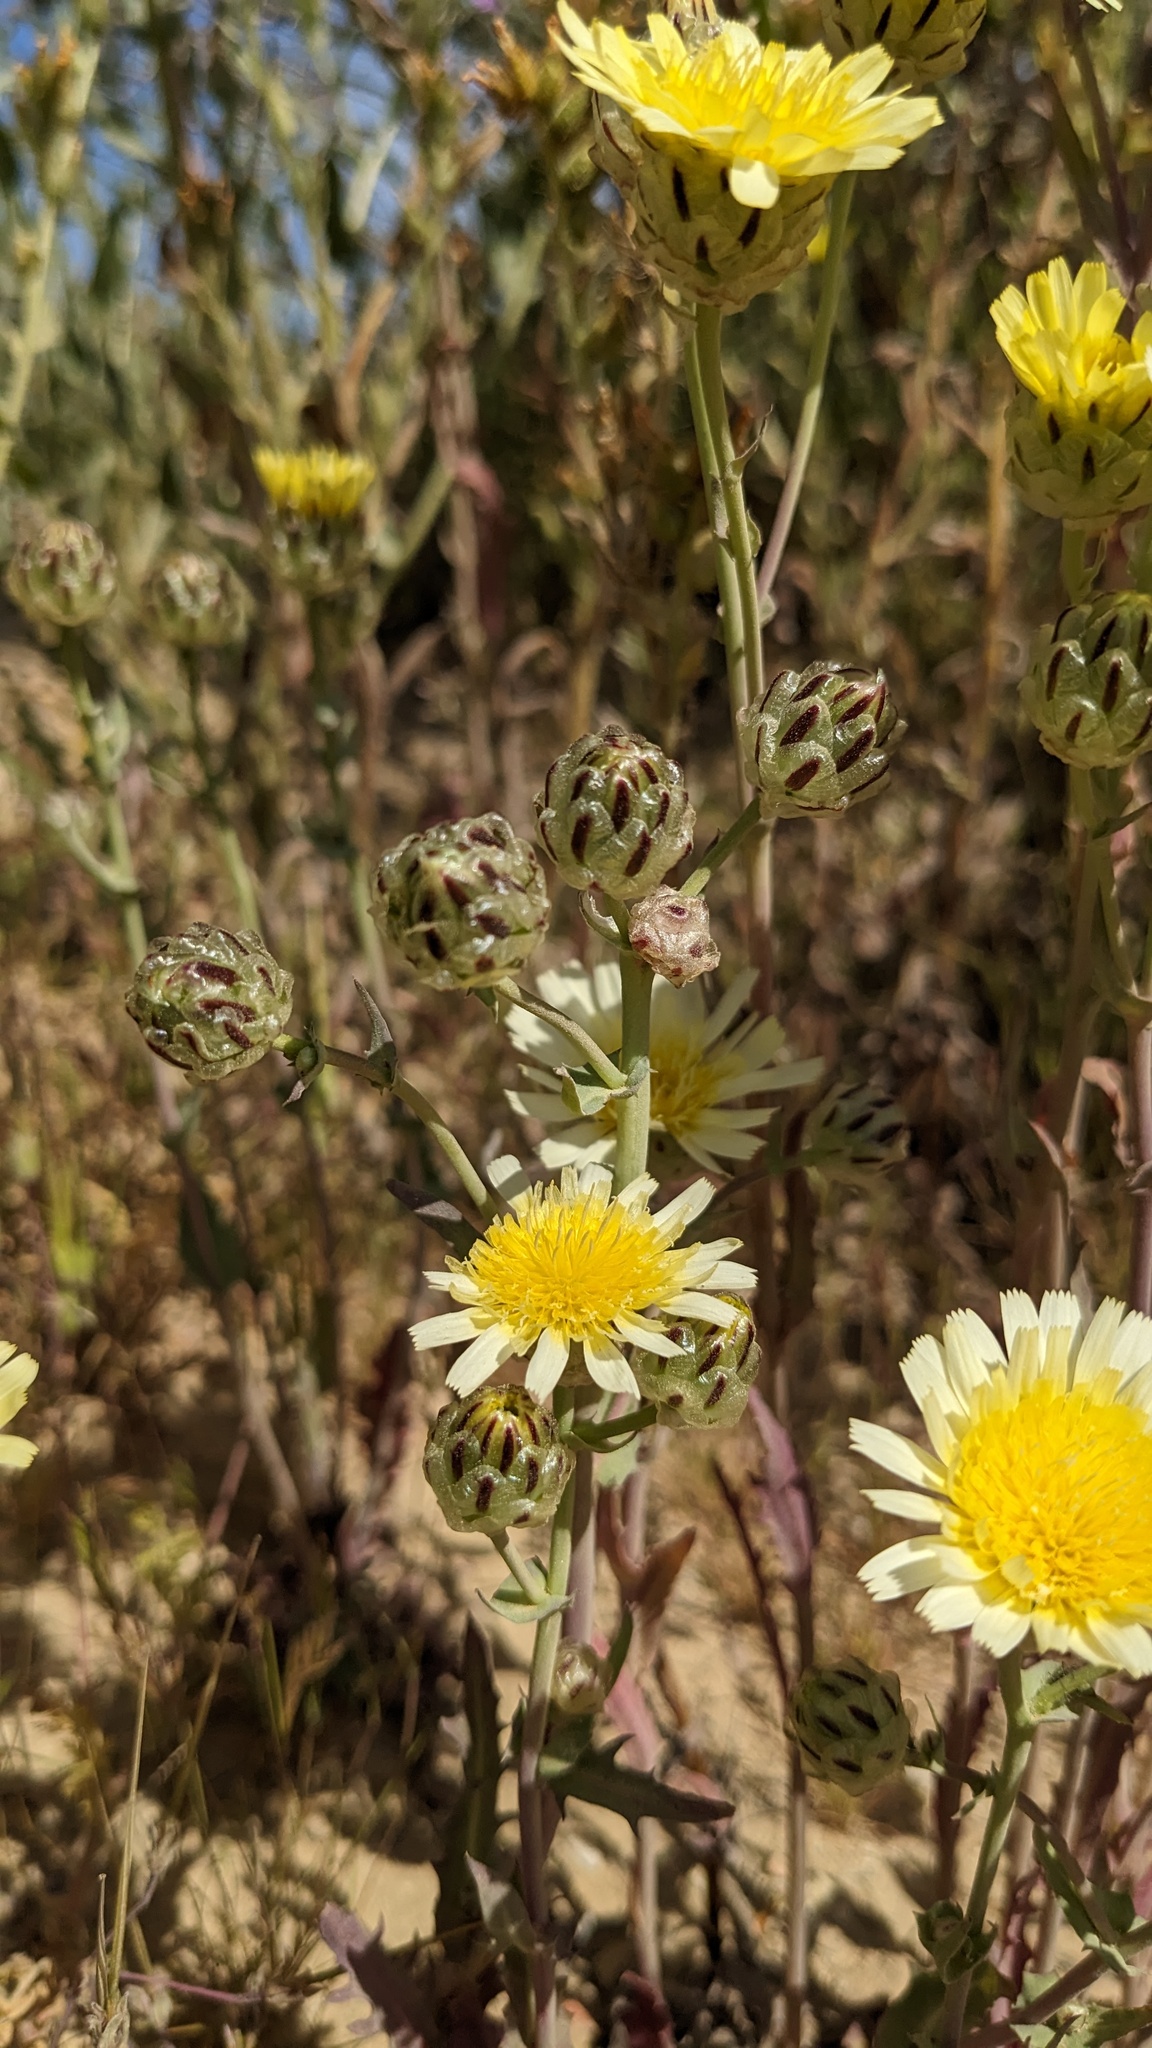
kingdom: Plantae
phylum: Tracheophyta
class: Magnoliopsida
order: Asterales
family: Asteraceae
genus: Malacothrix
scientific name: Malacothrix coulteri
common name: Snake's-head
